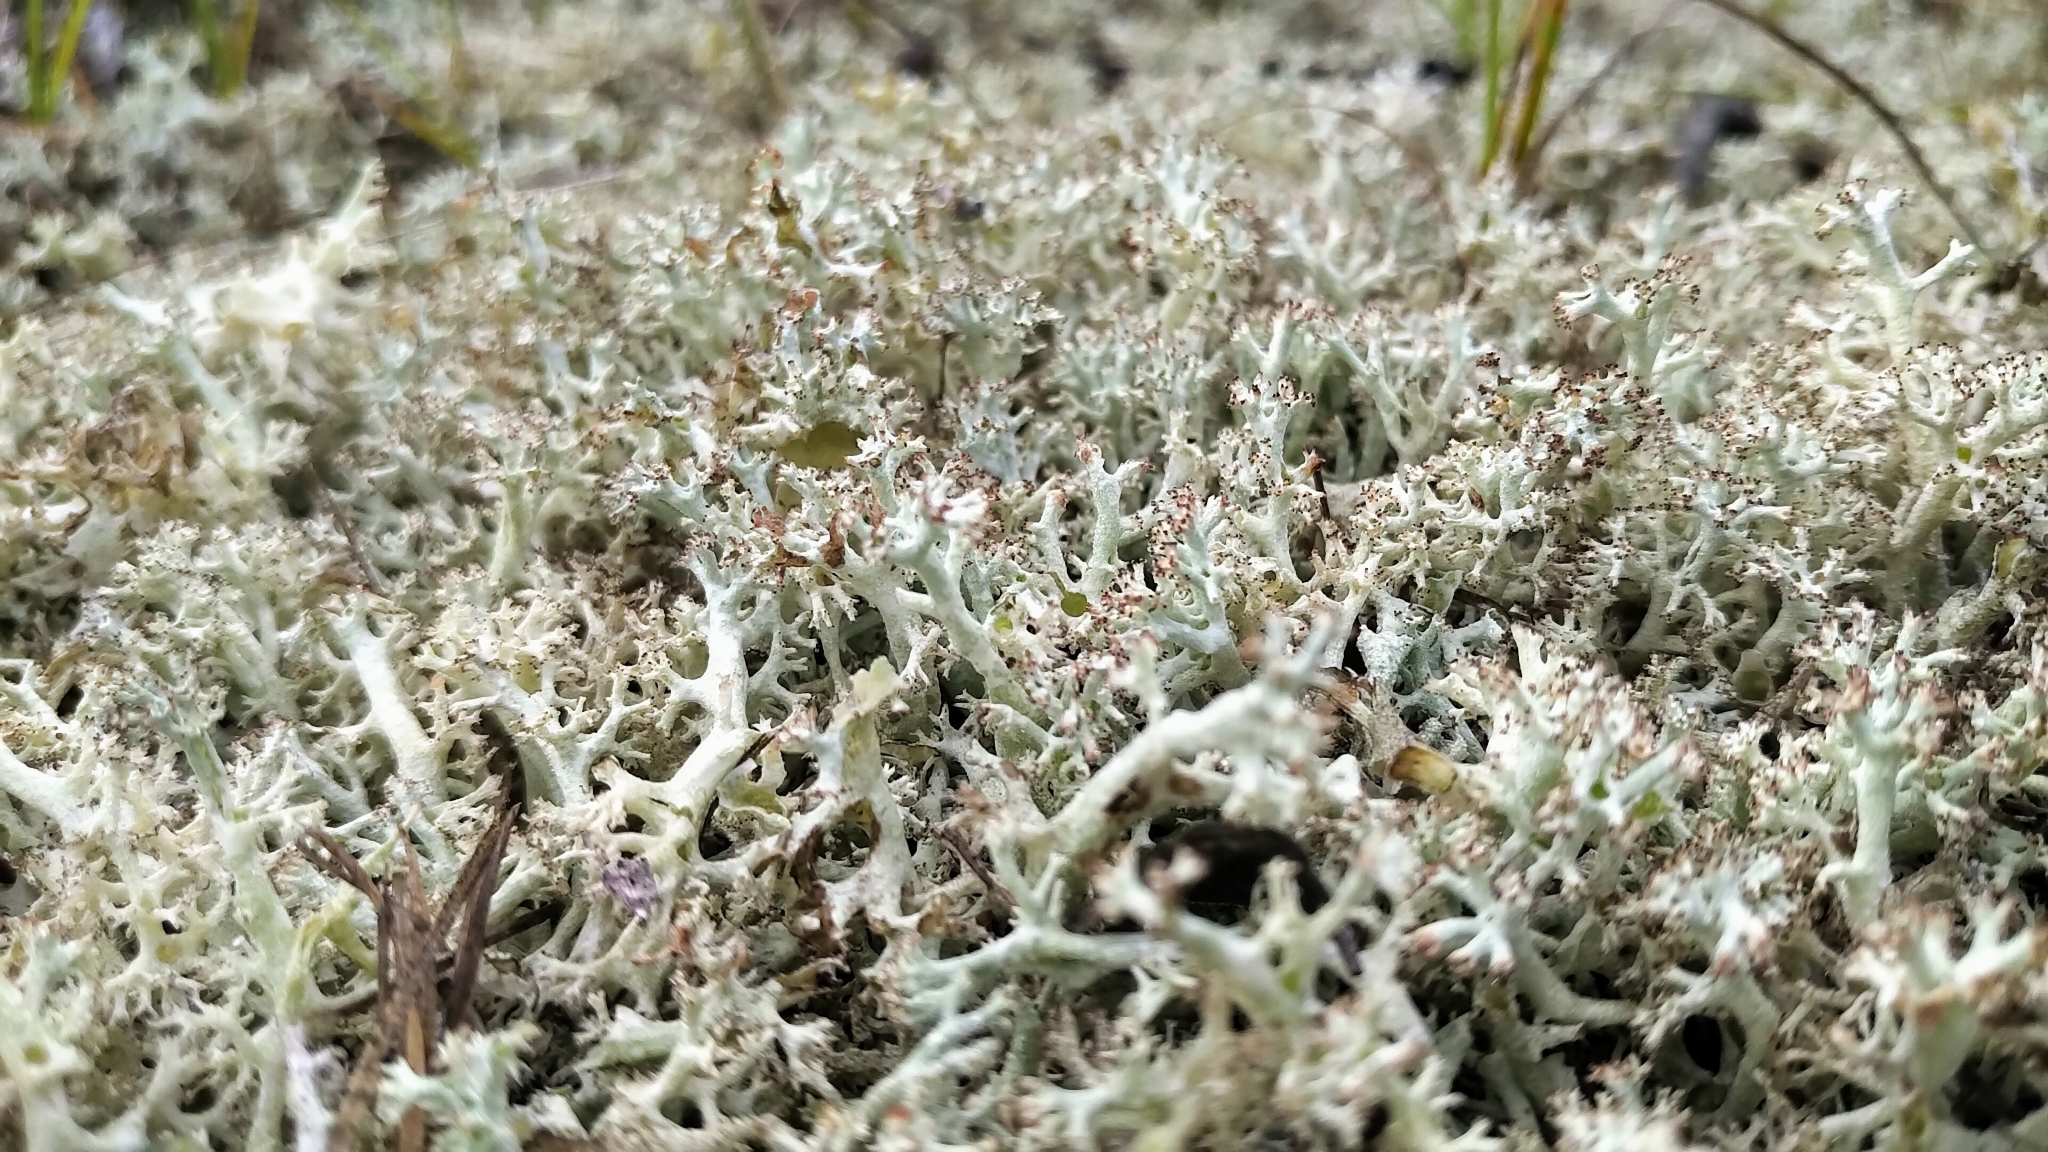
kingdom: Fungi
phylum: Ascomycota
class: Lecanoromycetes
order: Lecanorales
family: Cladoniaceae
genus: Cladonia
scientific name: Cladonia uncialis
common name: Thorn lichen
